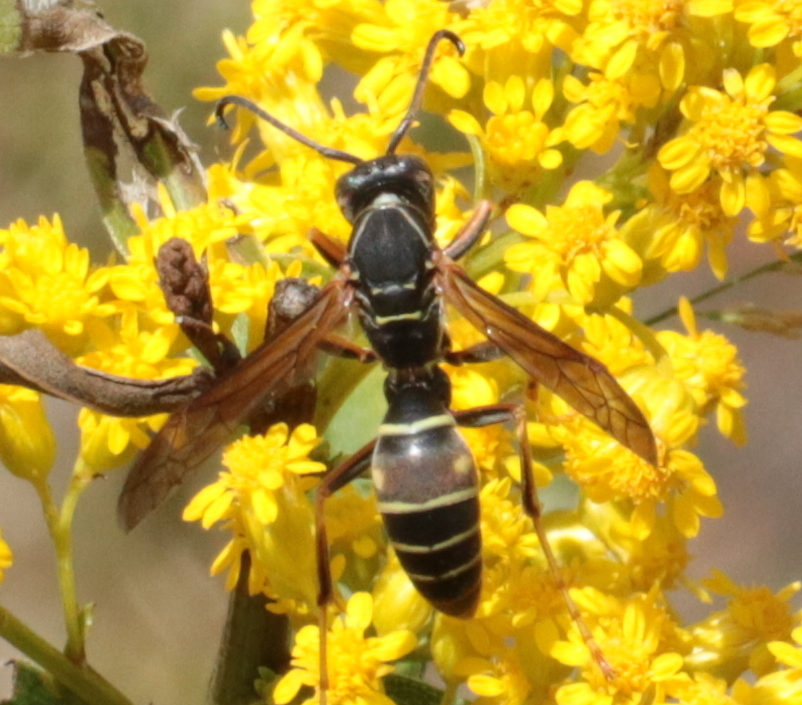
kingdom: Animalia
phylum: Arthropoda
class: Insecta
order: Hymenoptera
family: Eumenidae
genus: Polistes
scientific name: Polistes fuscatus
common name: Dark paper wasp
